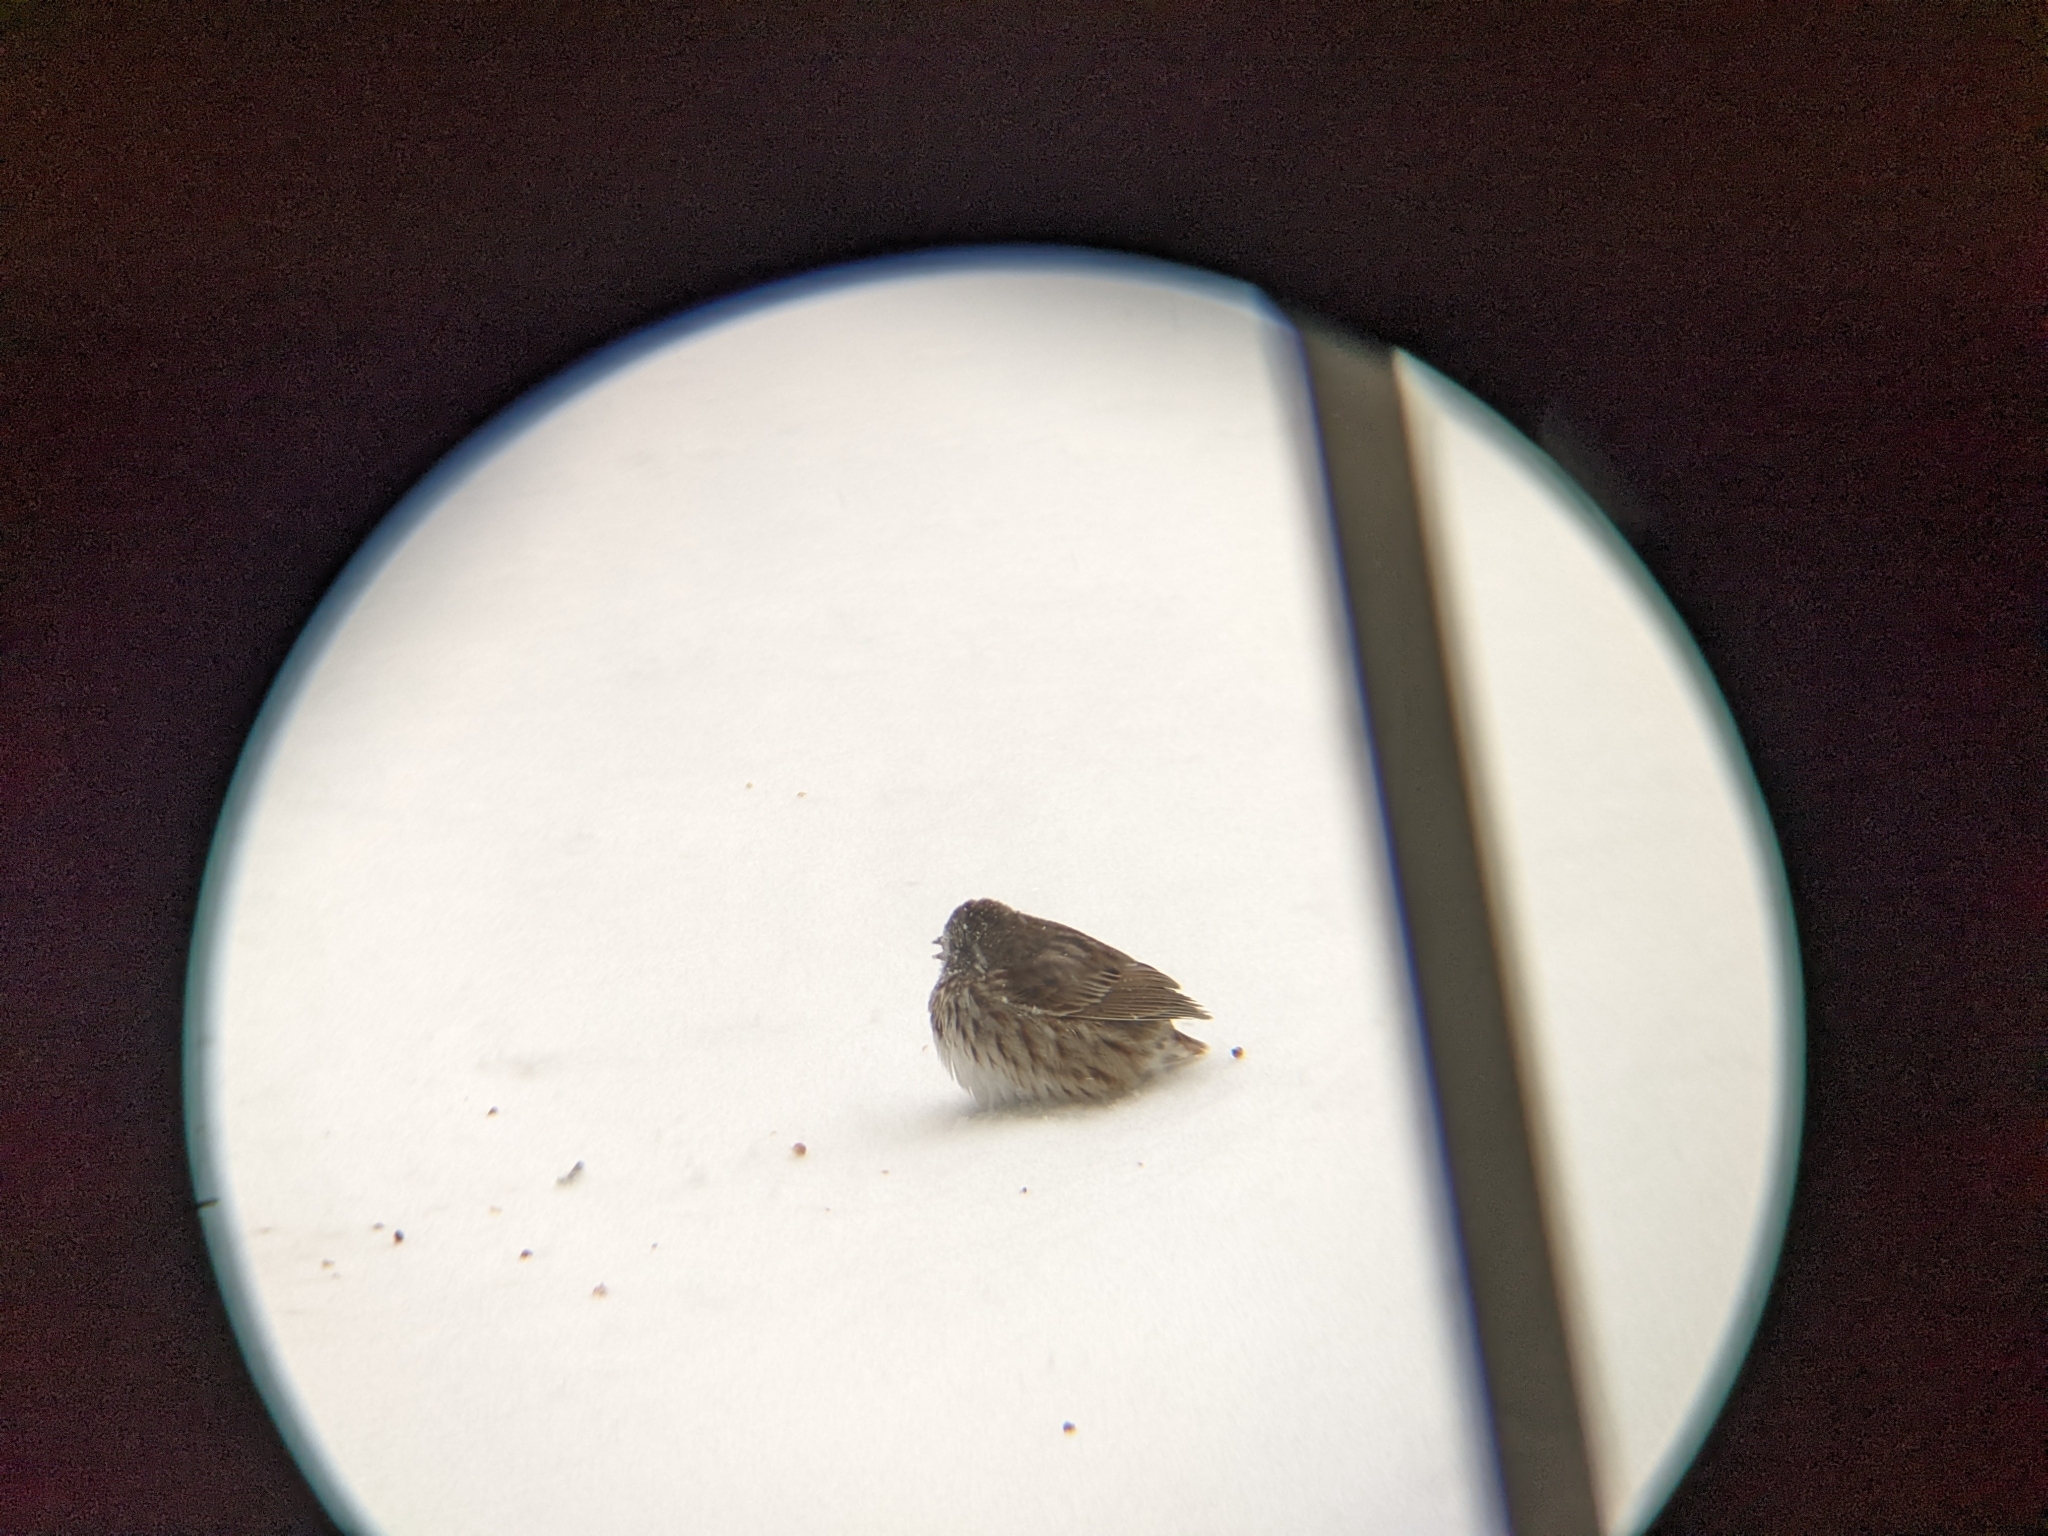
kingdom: Animalia
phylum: Chordata
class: Aves
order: Passeriformes
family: Passerellidae
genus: Melospiza
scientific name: Melospiza melodia
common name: Song sparrow
